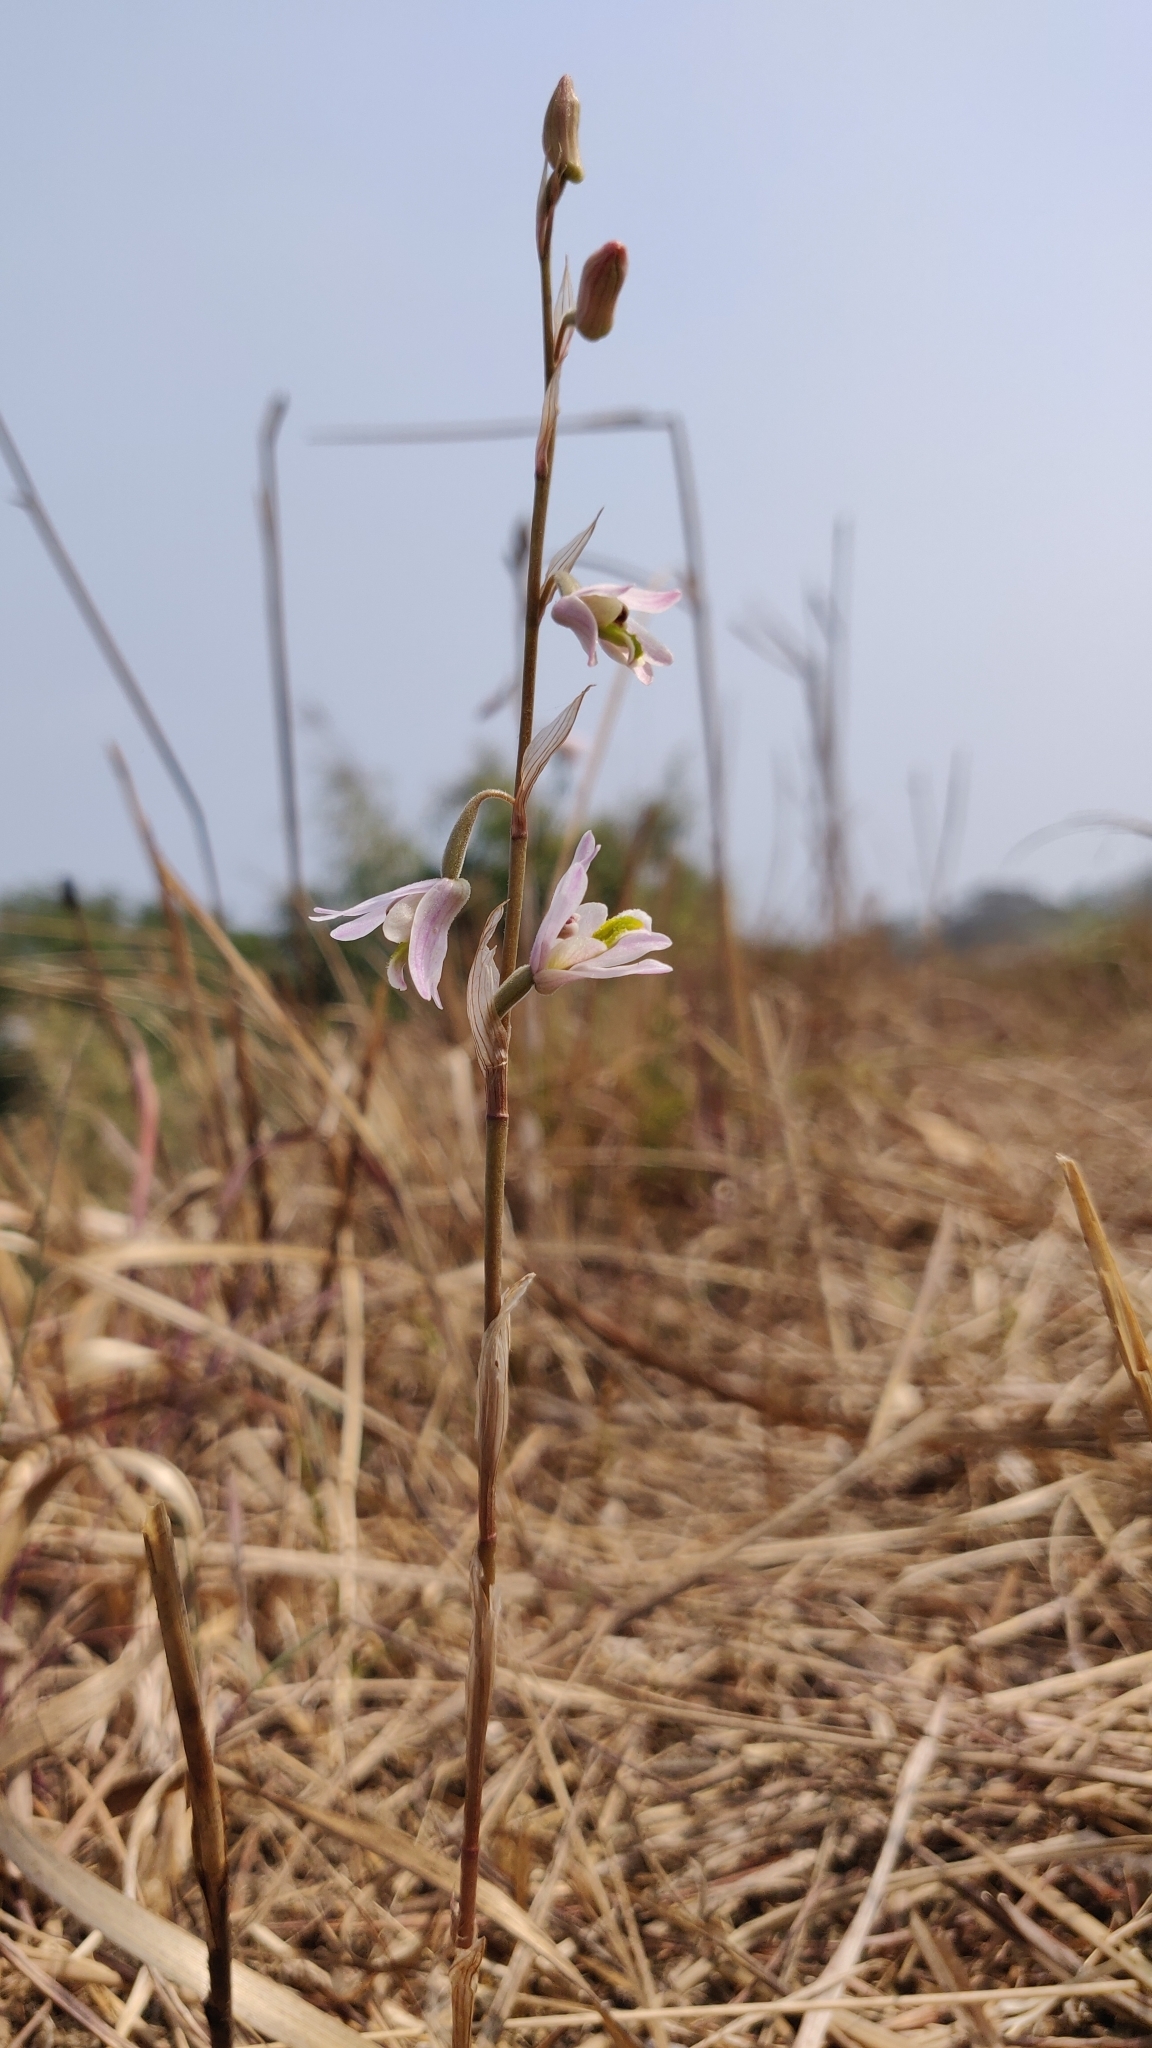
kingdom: Plantae
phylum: Tracheophyta
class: Liliopsida
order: Asparagales
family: Orchidaceae
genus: Pachystoma
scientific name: Pachystoma pubescens
